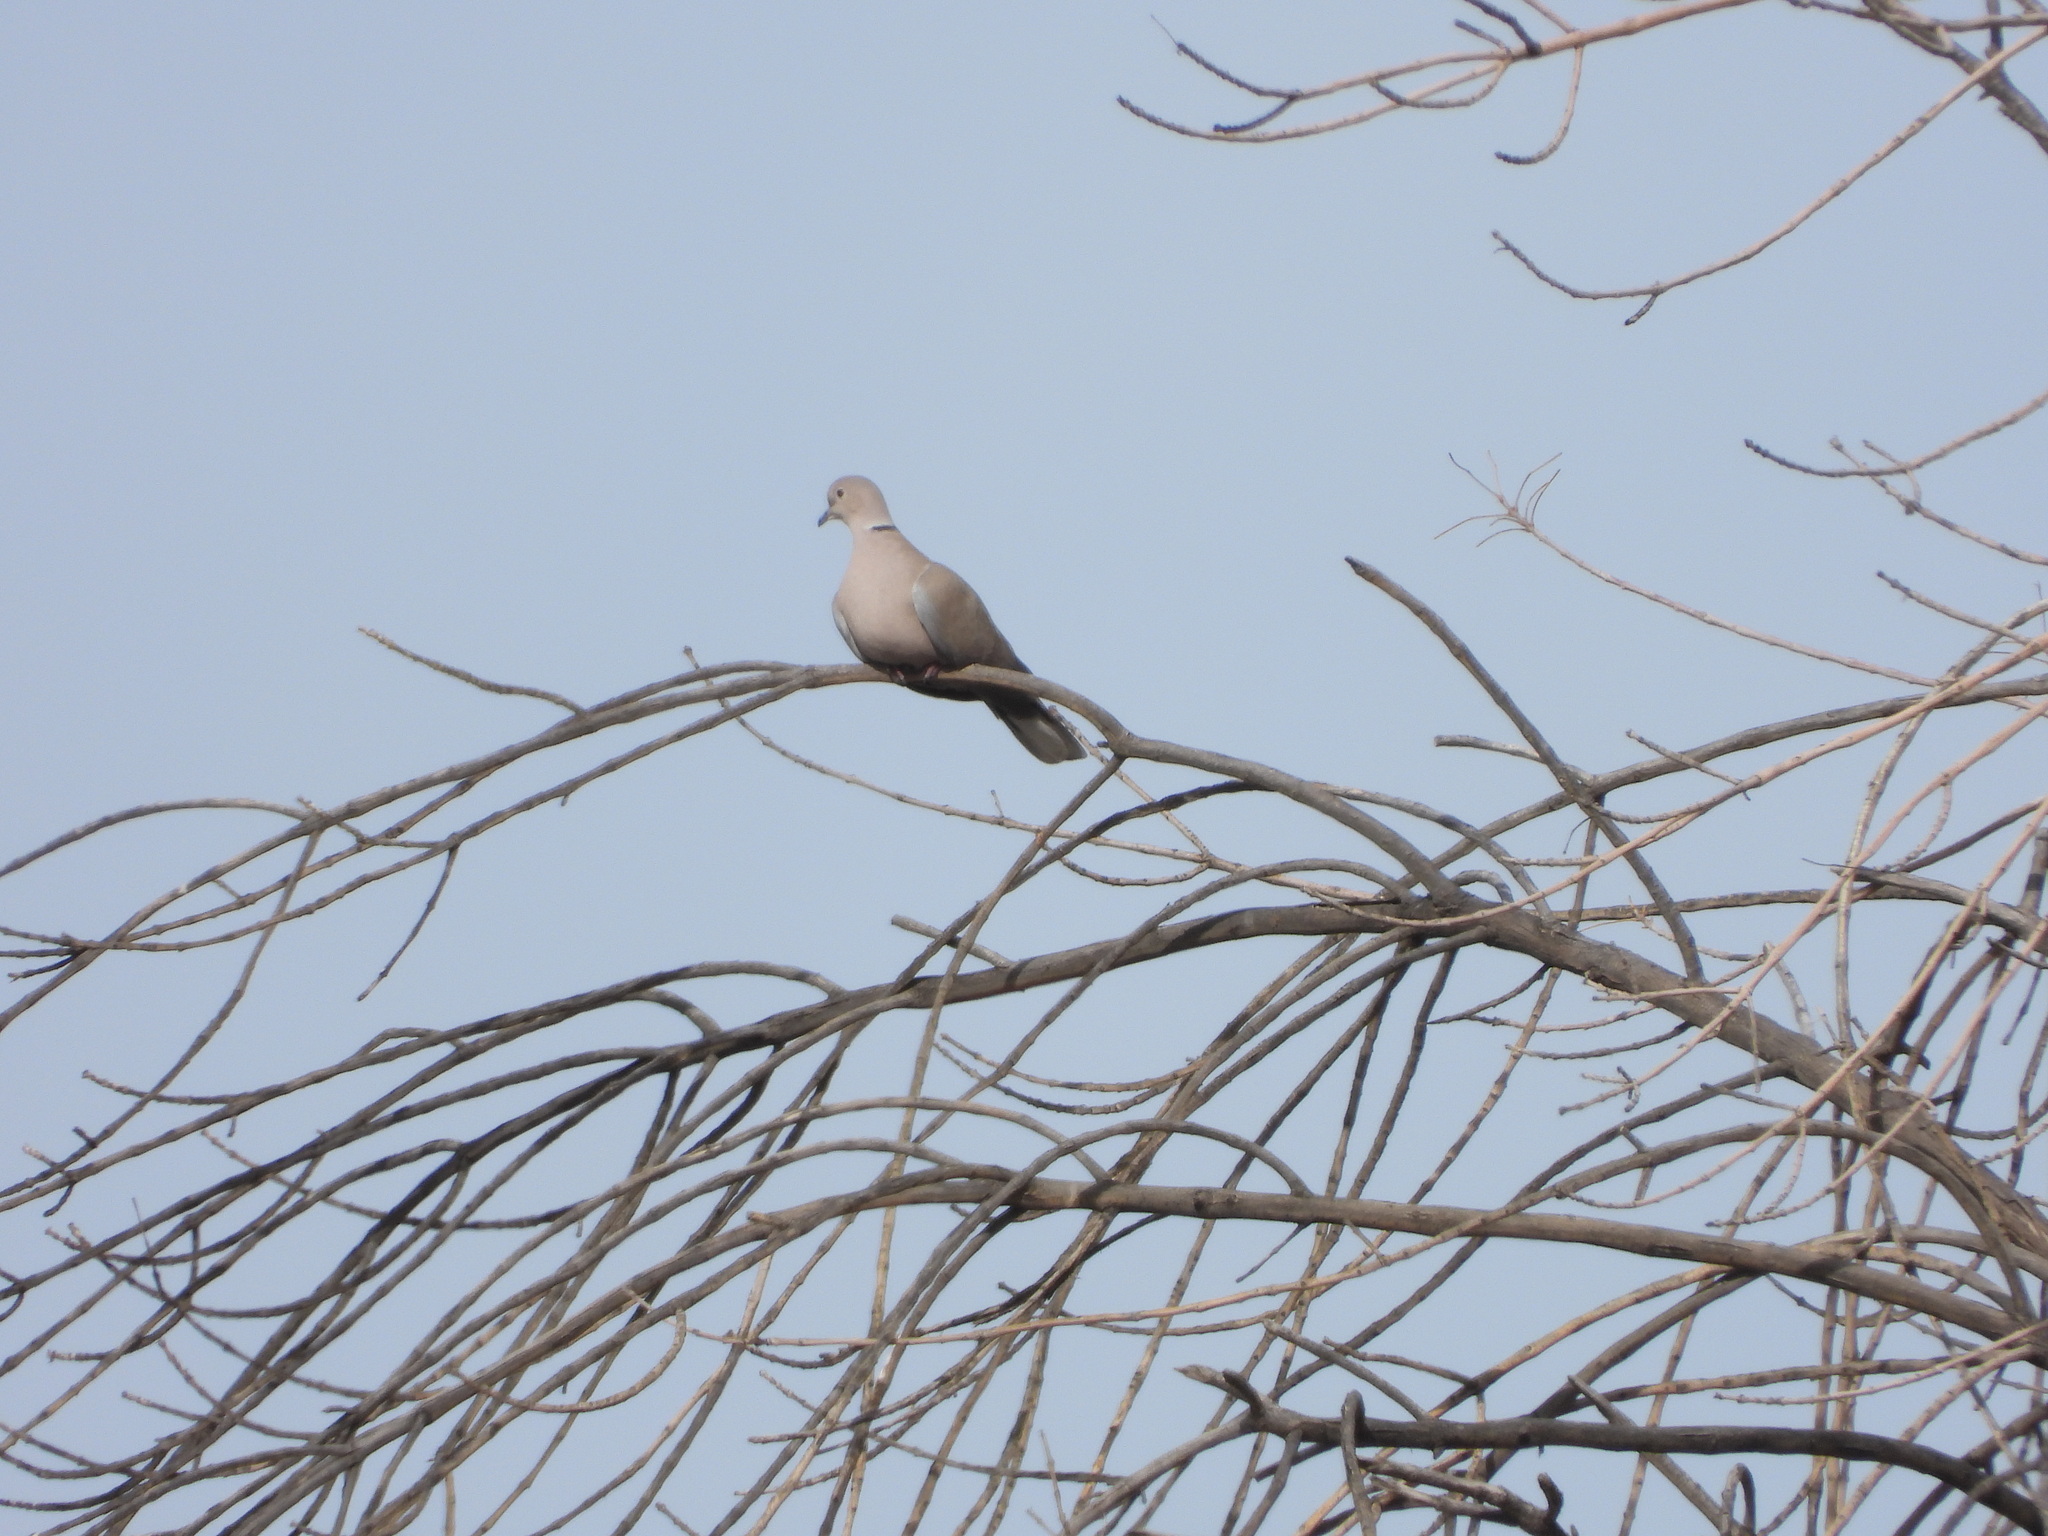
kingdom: Animalia
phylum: Chordata
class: Aves
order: Columbiformes
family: Columbidae
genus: Streptopelia
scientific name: Streptopelia decaocto
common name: Eurasian collared dove
